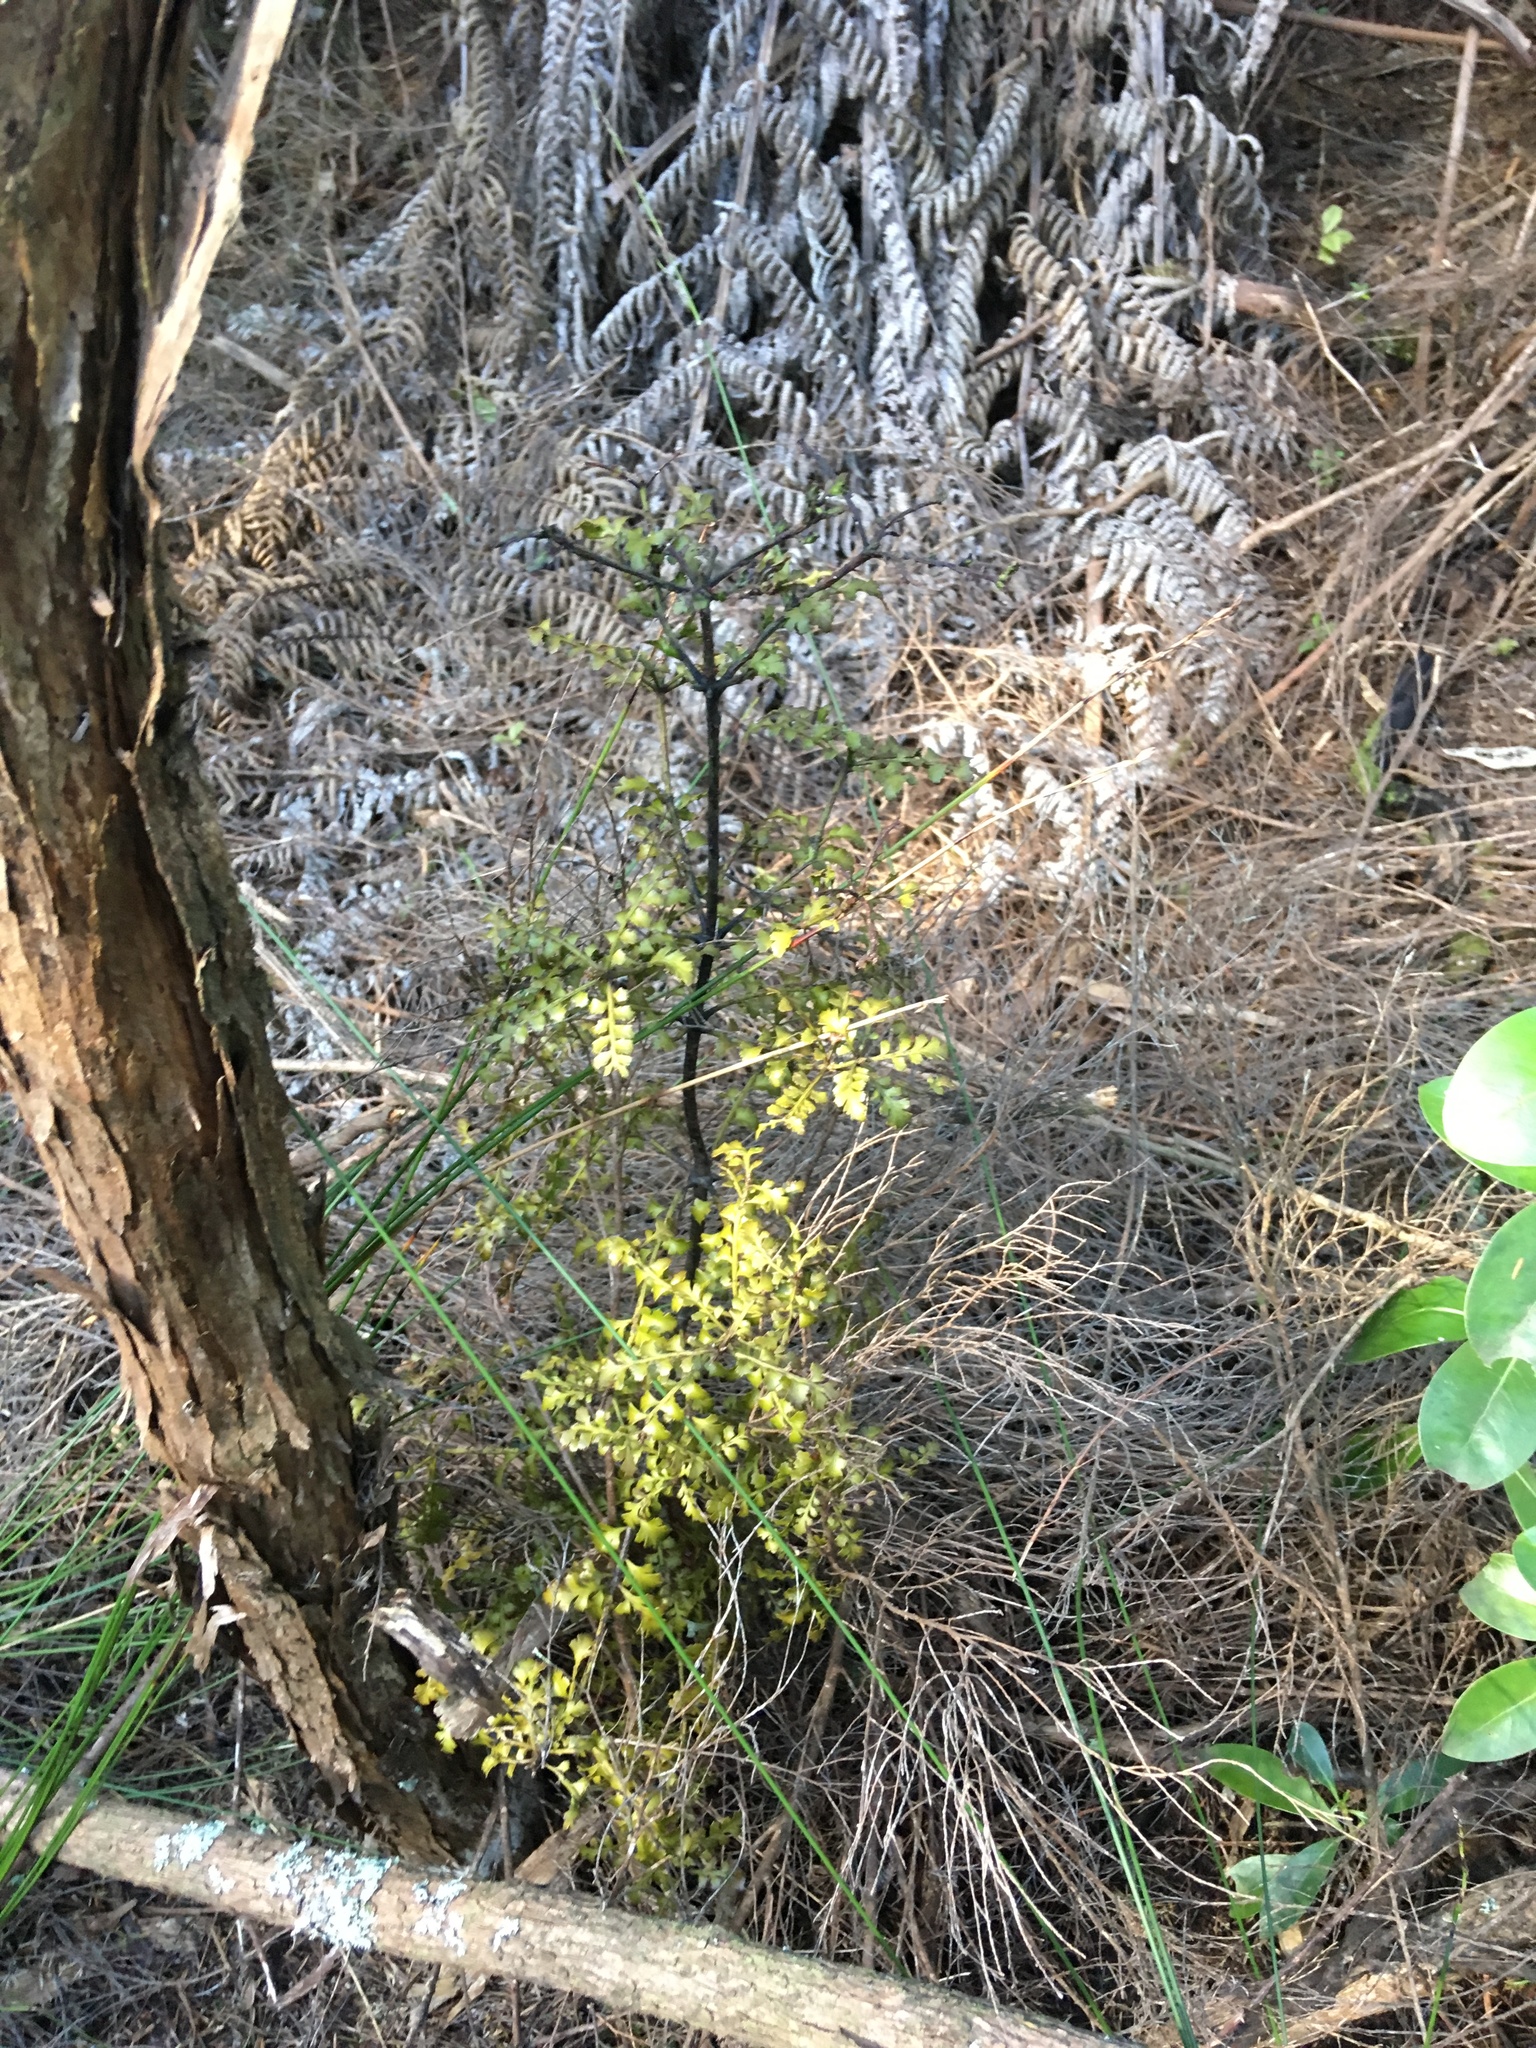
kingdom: Plantae
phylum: Tracheophyta
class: Pinopsida
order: Pinales
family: Phyllocladaceae
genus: Phyllocladus
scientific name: Phyllocladus trichomanoides
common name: Celery pine
